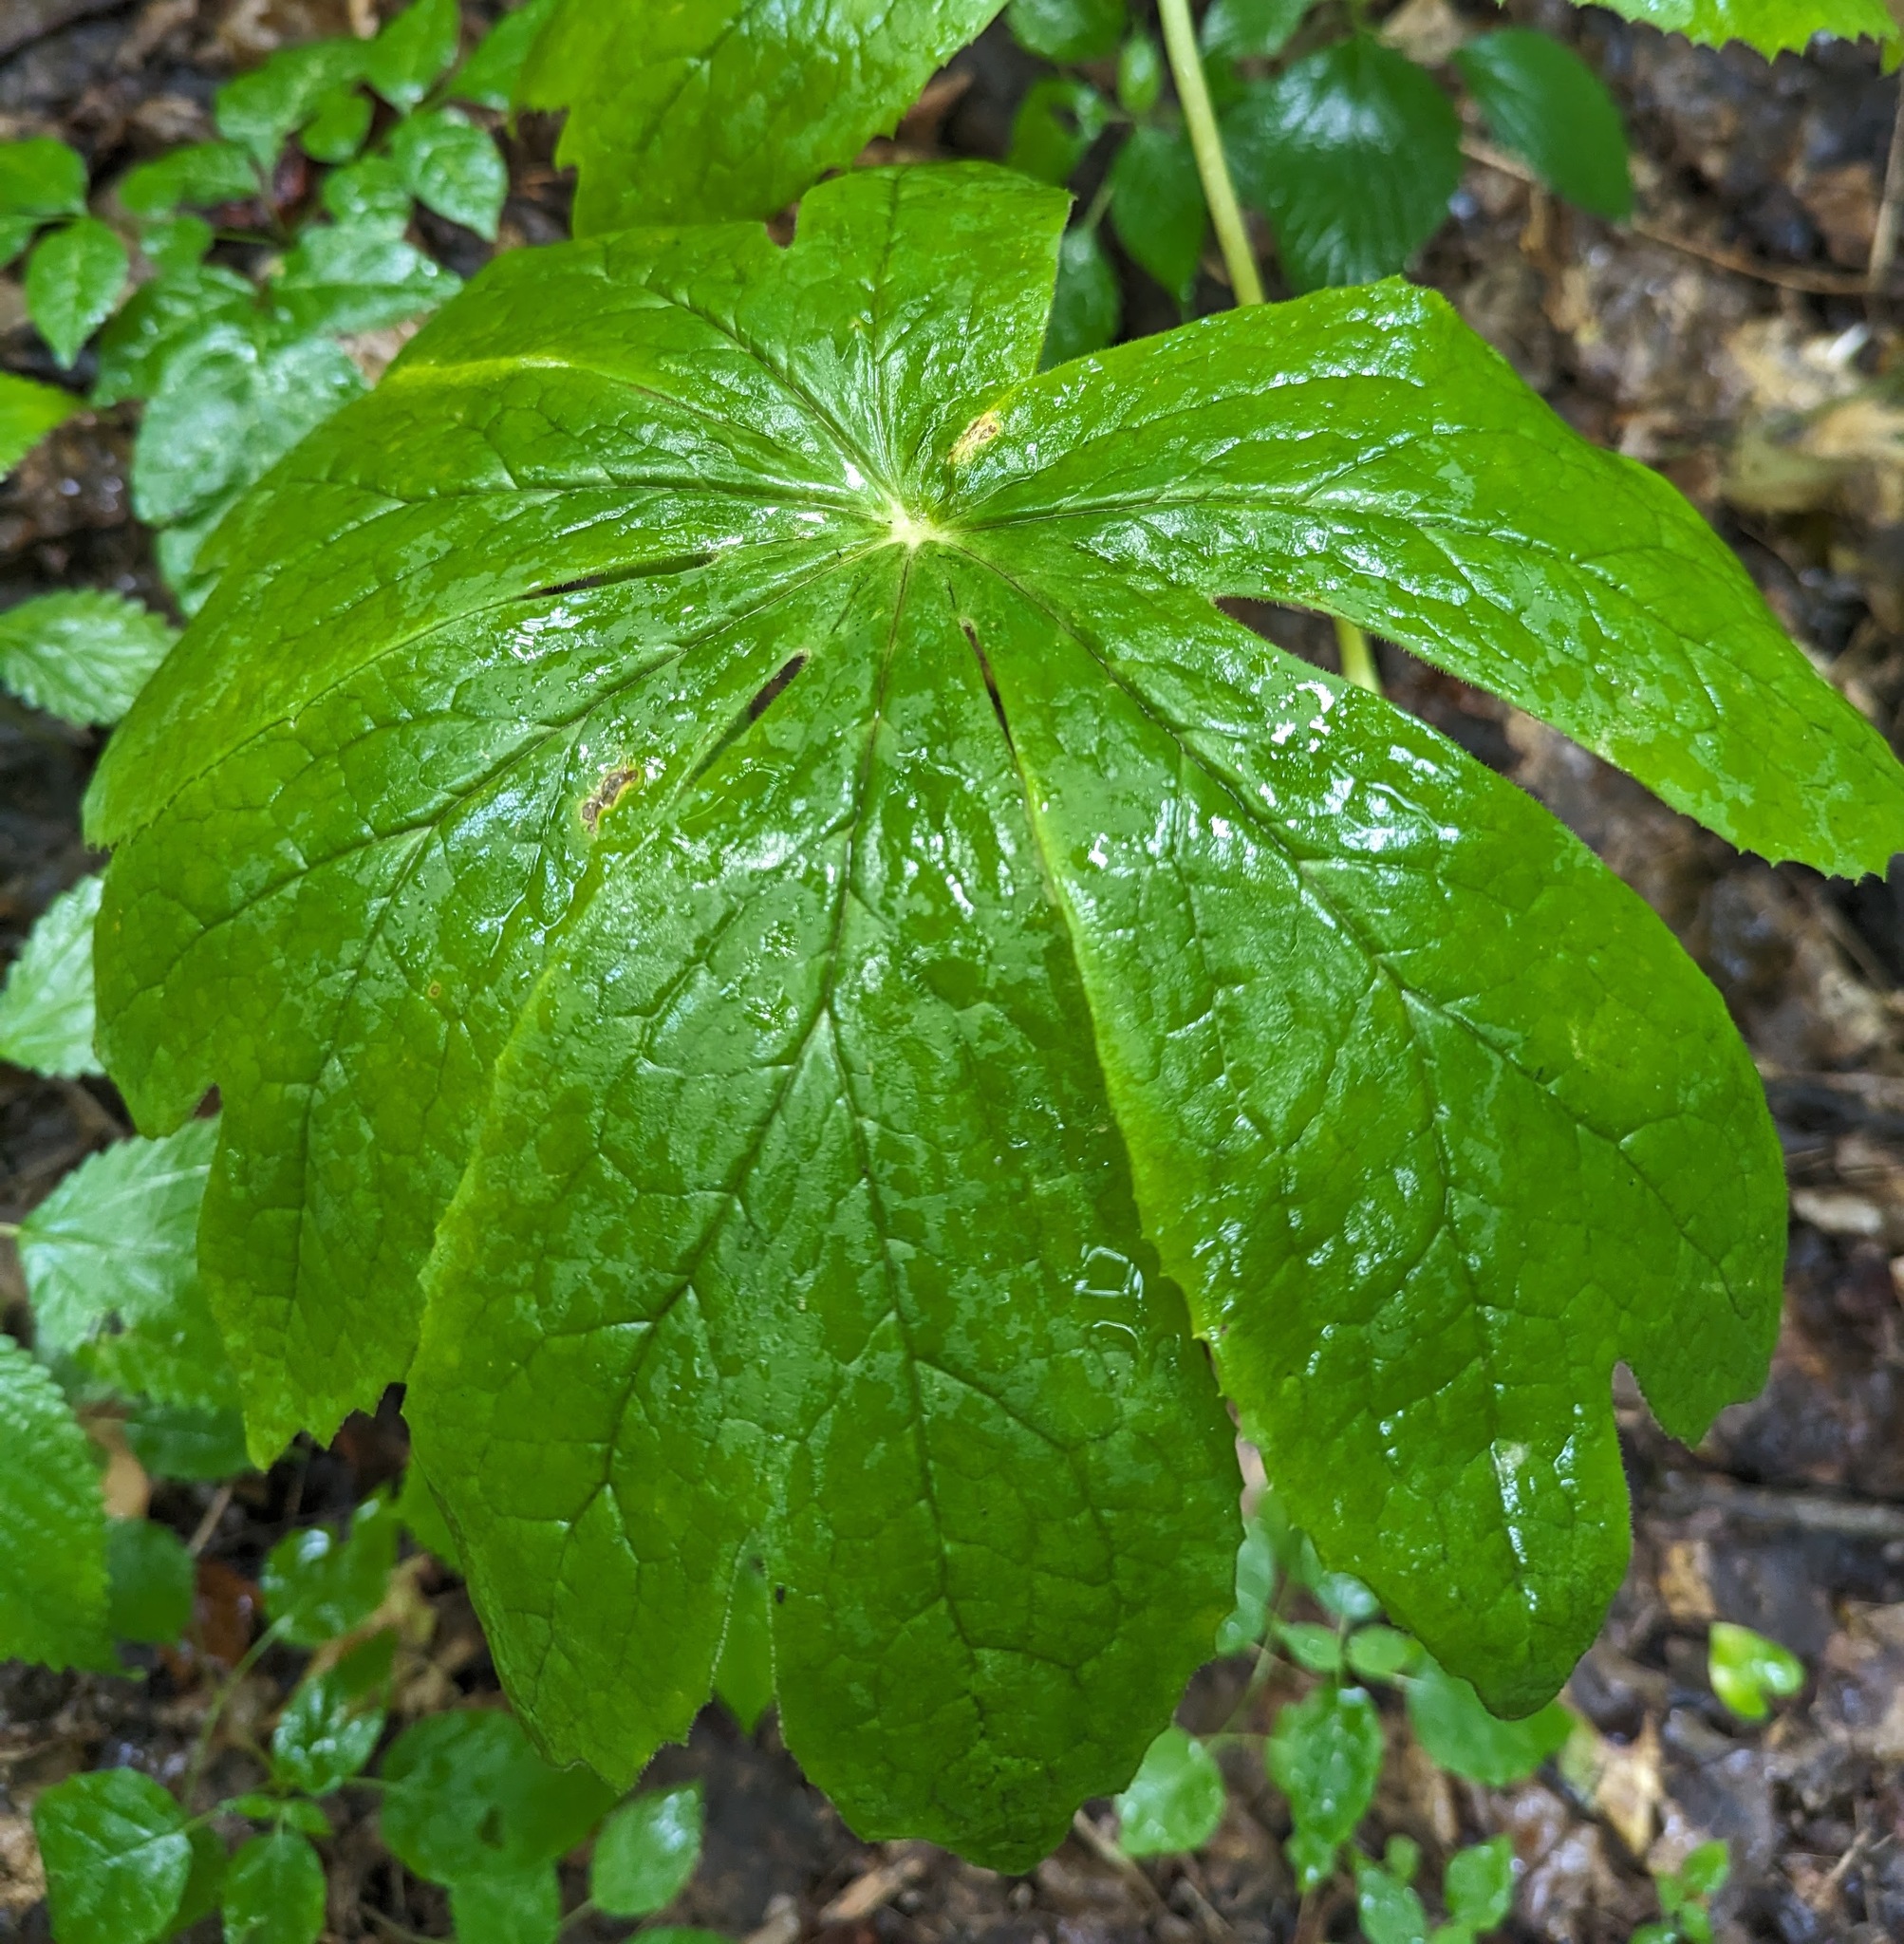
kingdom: Plantae
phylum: Tracheophyta
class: Magnoliopsida
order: Ranunculales
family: Berberidaceae
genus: Podophyllum
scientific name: Podophyllum peltatum
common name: Wild mandrake
